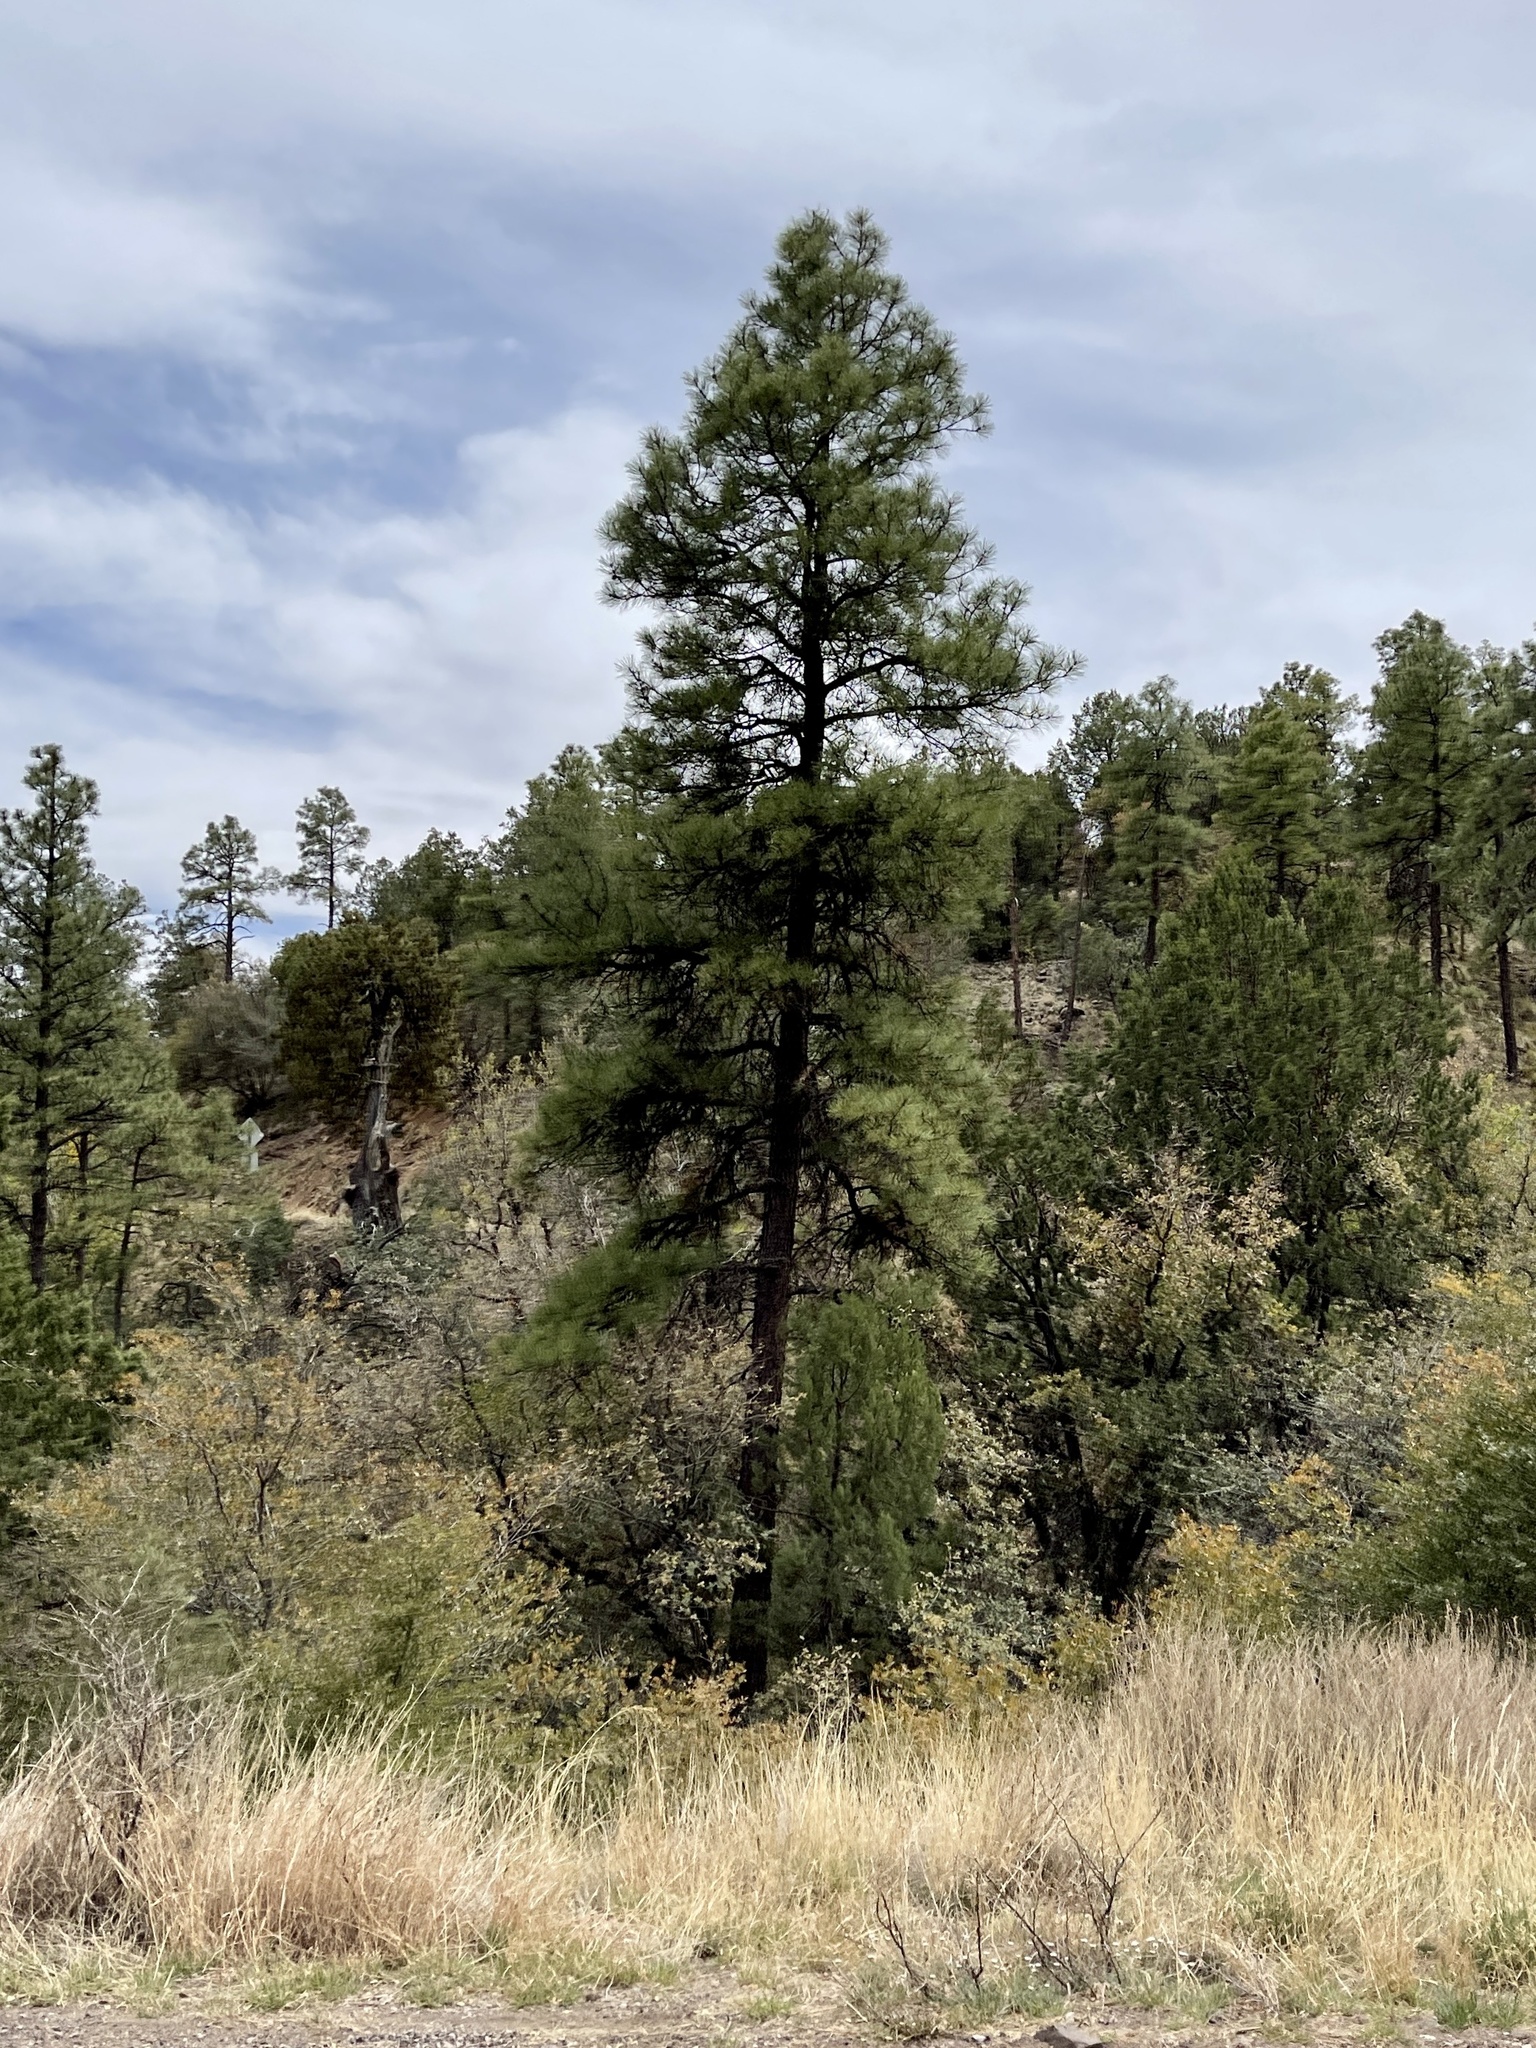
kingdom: Plantae
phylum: Tracheophyta
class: Pinopsida
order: Pinales
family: Pinaceae
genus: Pinus
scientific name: Pinus ponderosa
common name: Western yellow-pine
